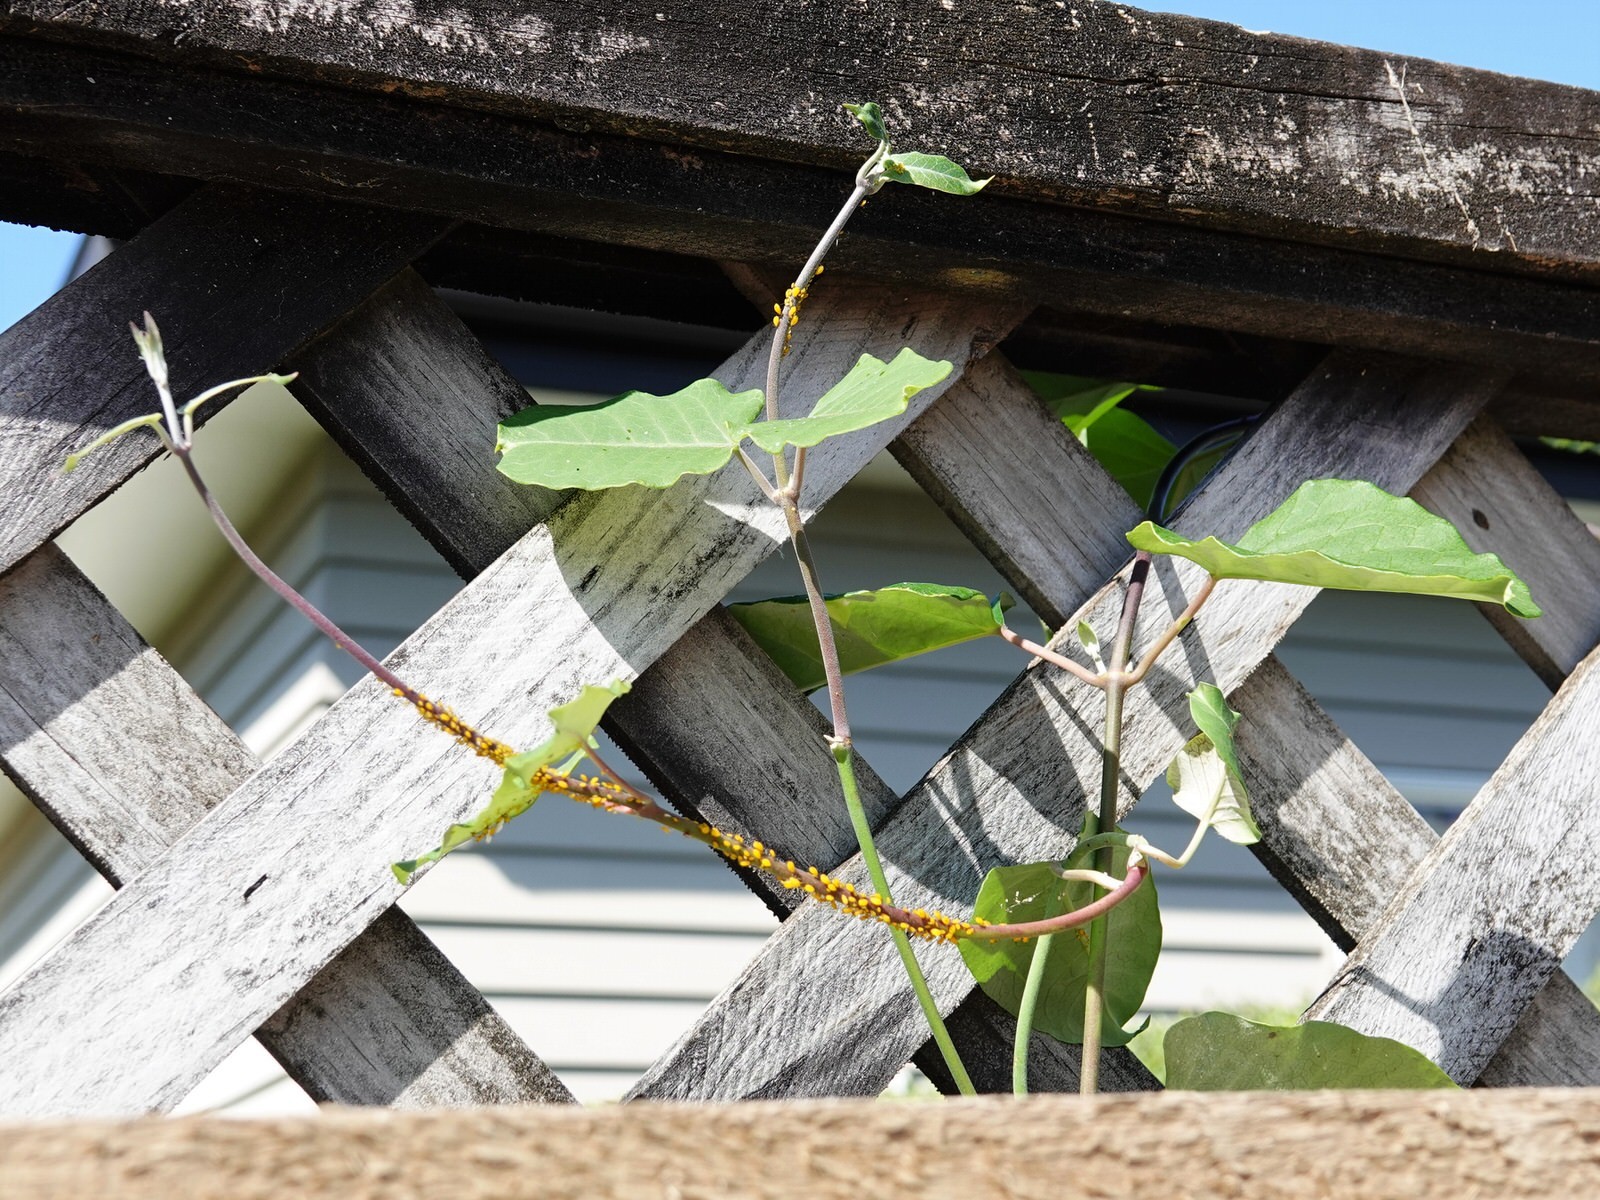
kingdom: Plantae
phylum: Tracheophyta
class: Magnoliopsida
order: Gentianales
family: Apocynaceae
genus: Araujia
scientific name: Araujia sericifera
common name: White bladderflower
